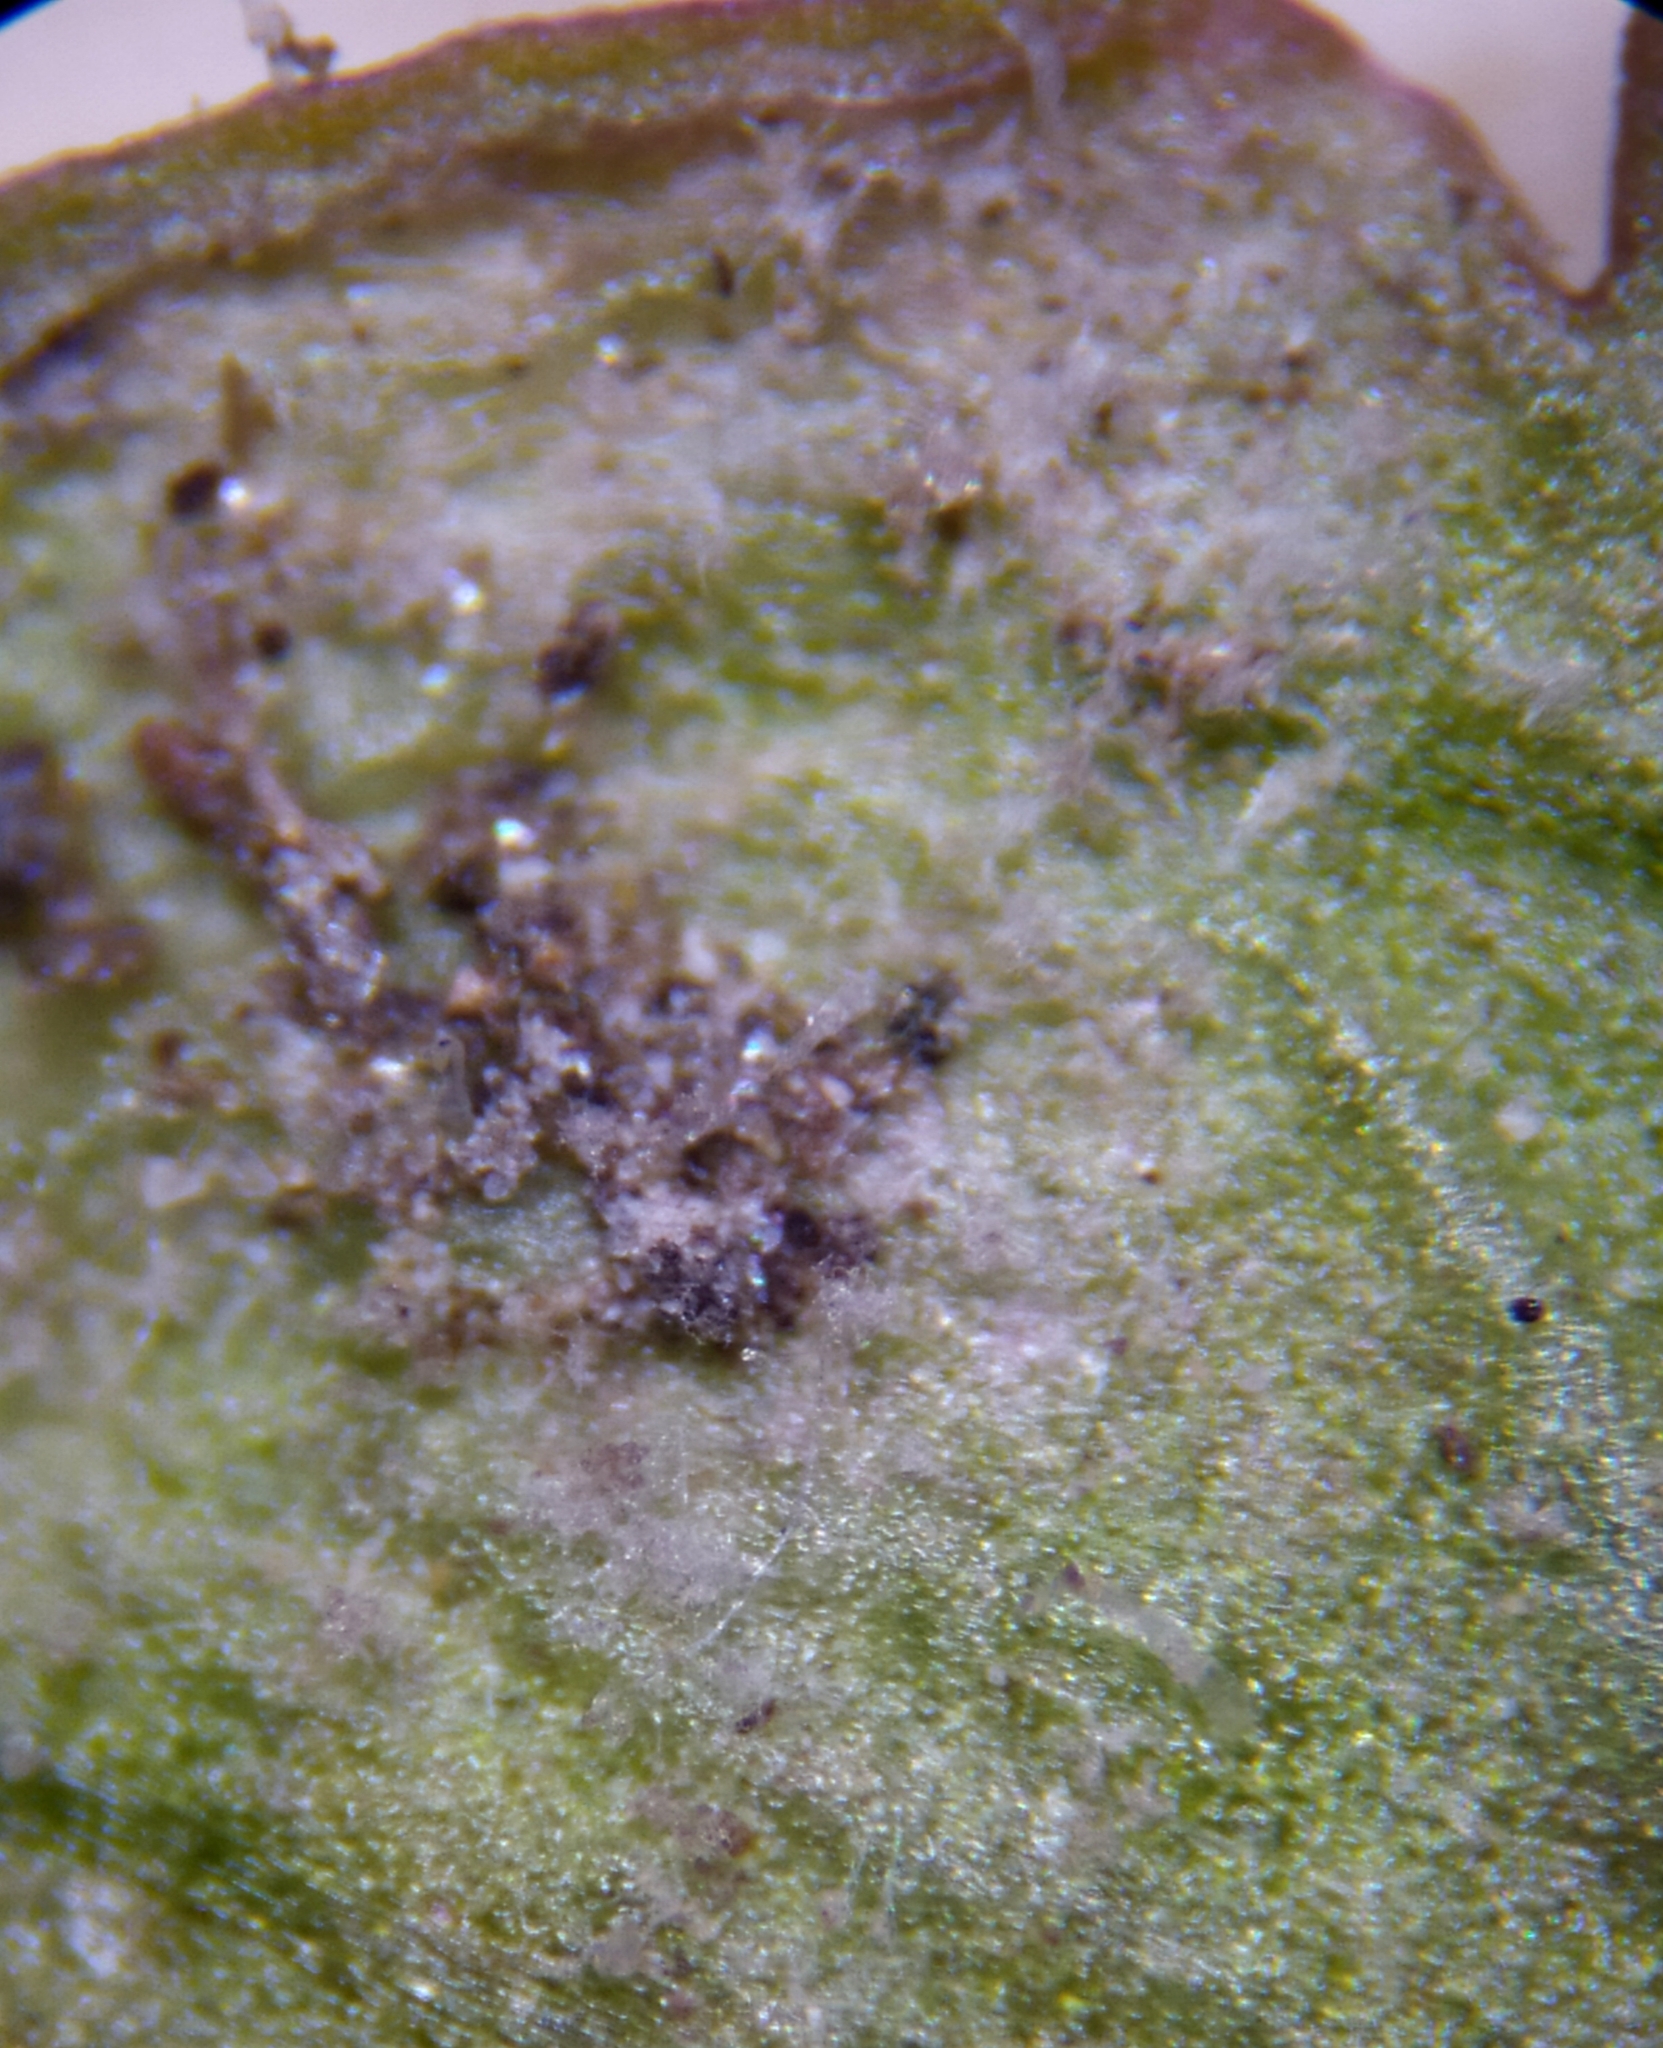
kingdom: Chromista
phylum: Oomycota
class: Peronosporea
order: Peronosporales
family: Peronosporaceae
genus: Peronospora
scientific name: Peronospora arvensis
